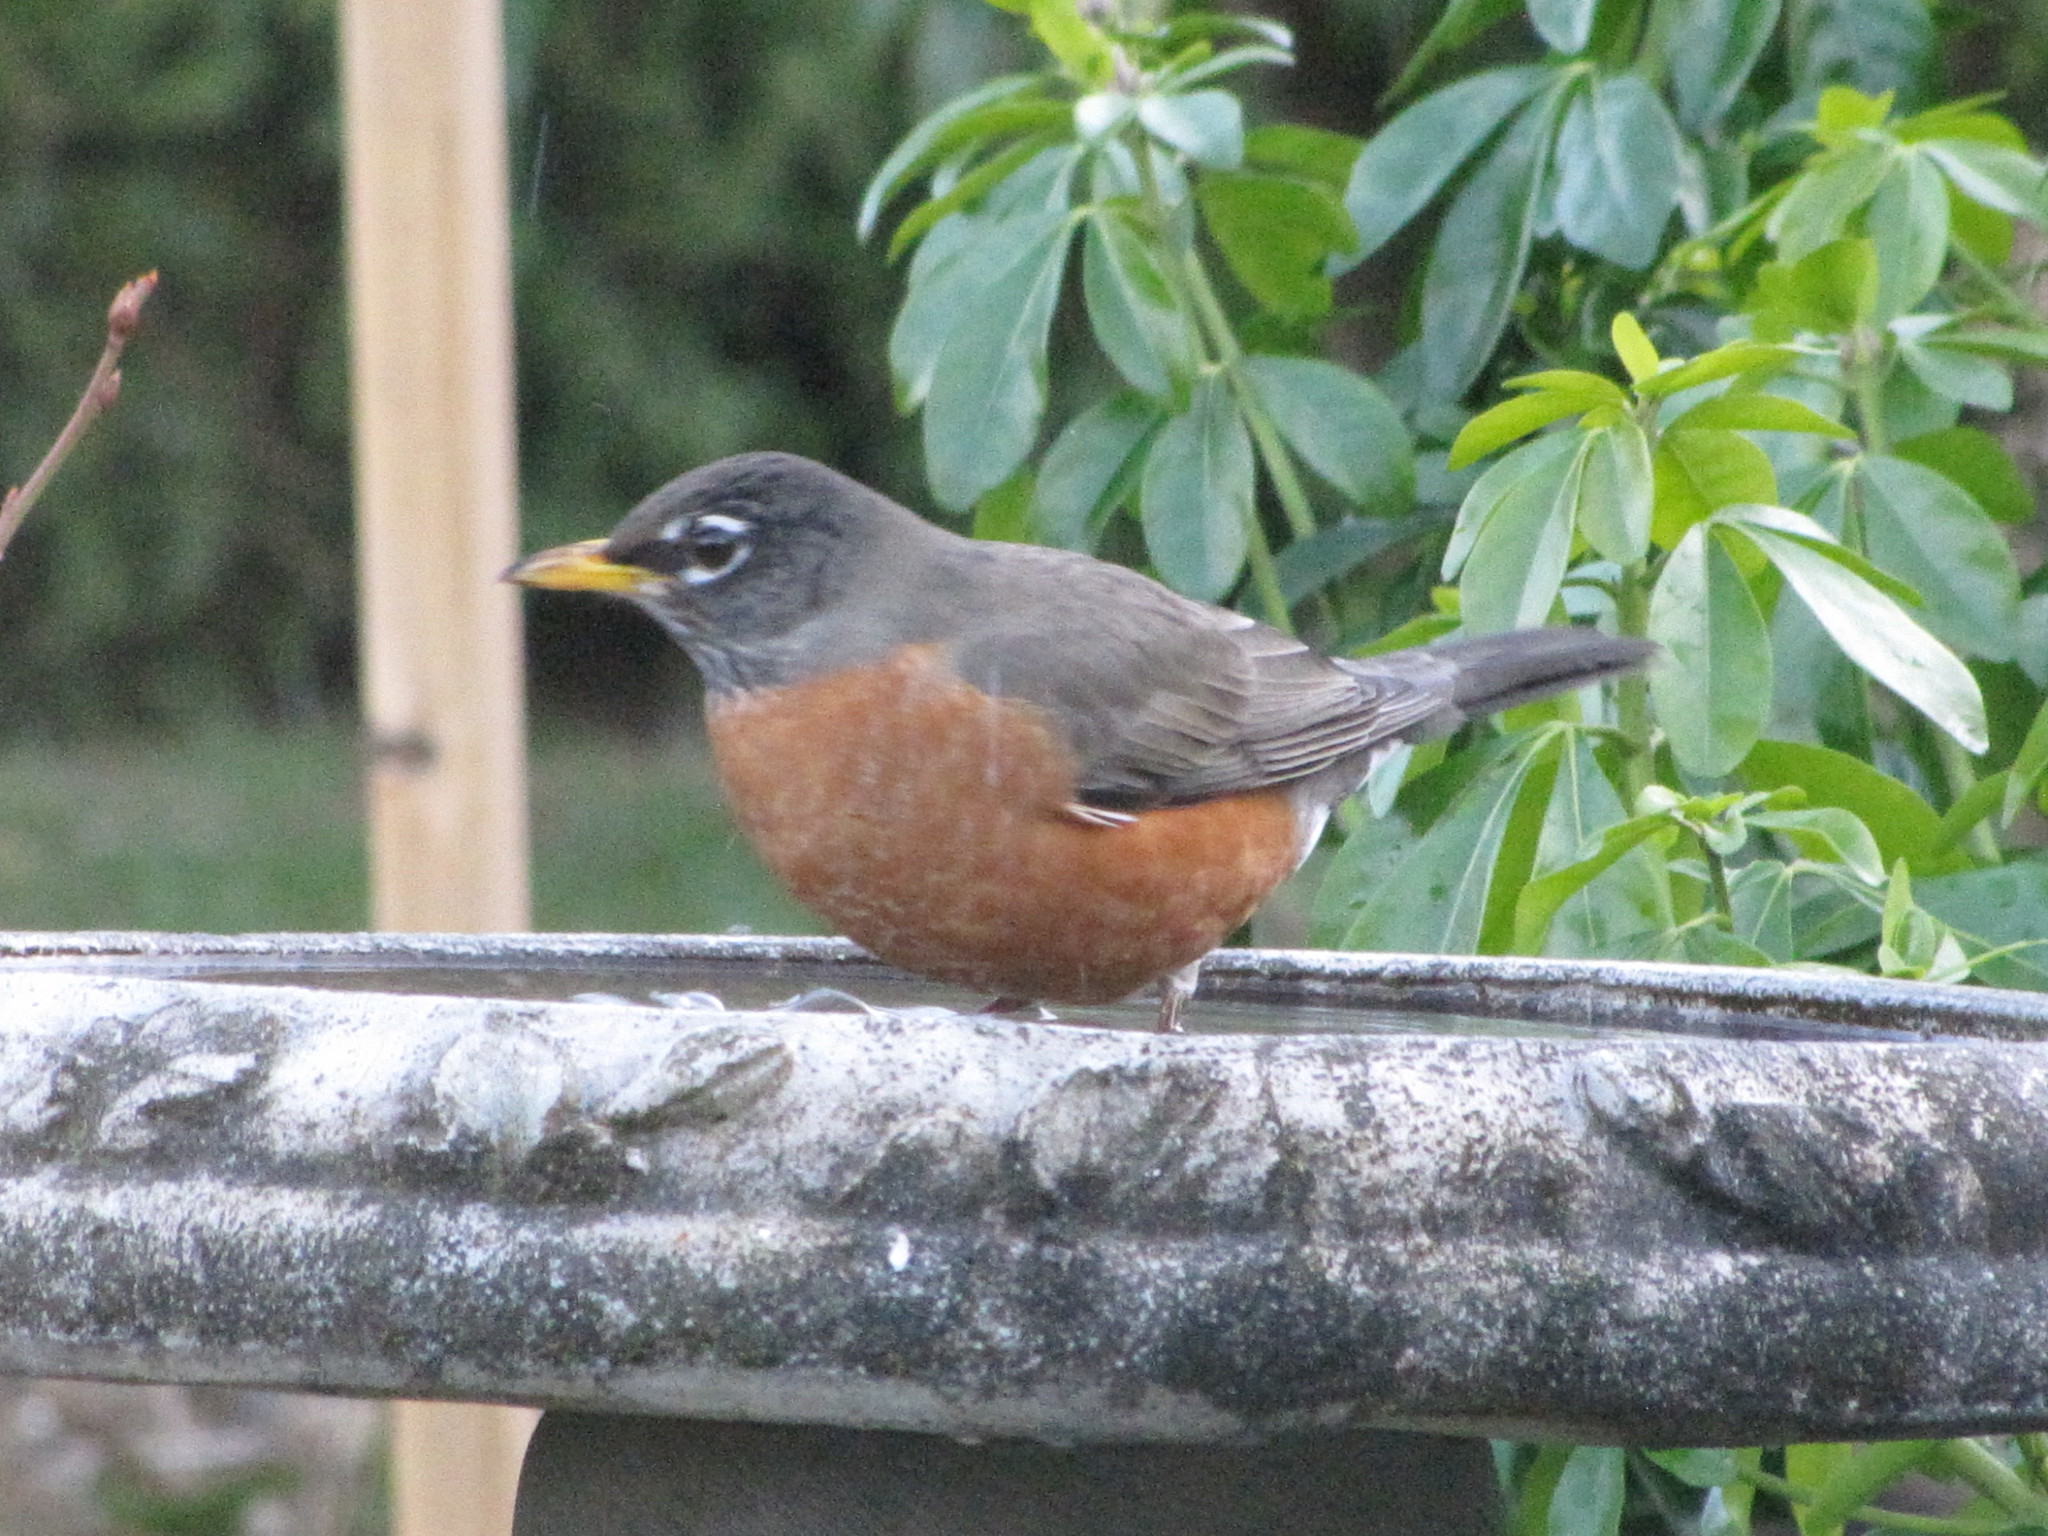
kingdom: Animalia
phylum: Chordata
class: Aves
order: Passeriformes
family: Turdidae
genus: Turdus
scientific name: Turdus migratorius
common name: American robin
